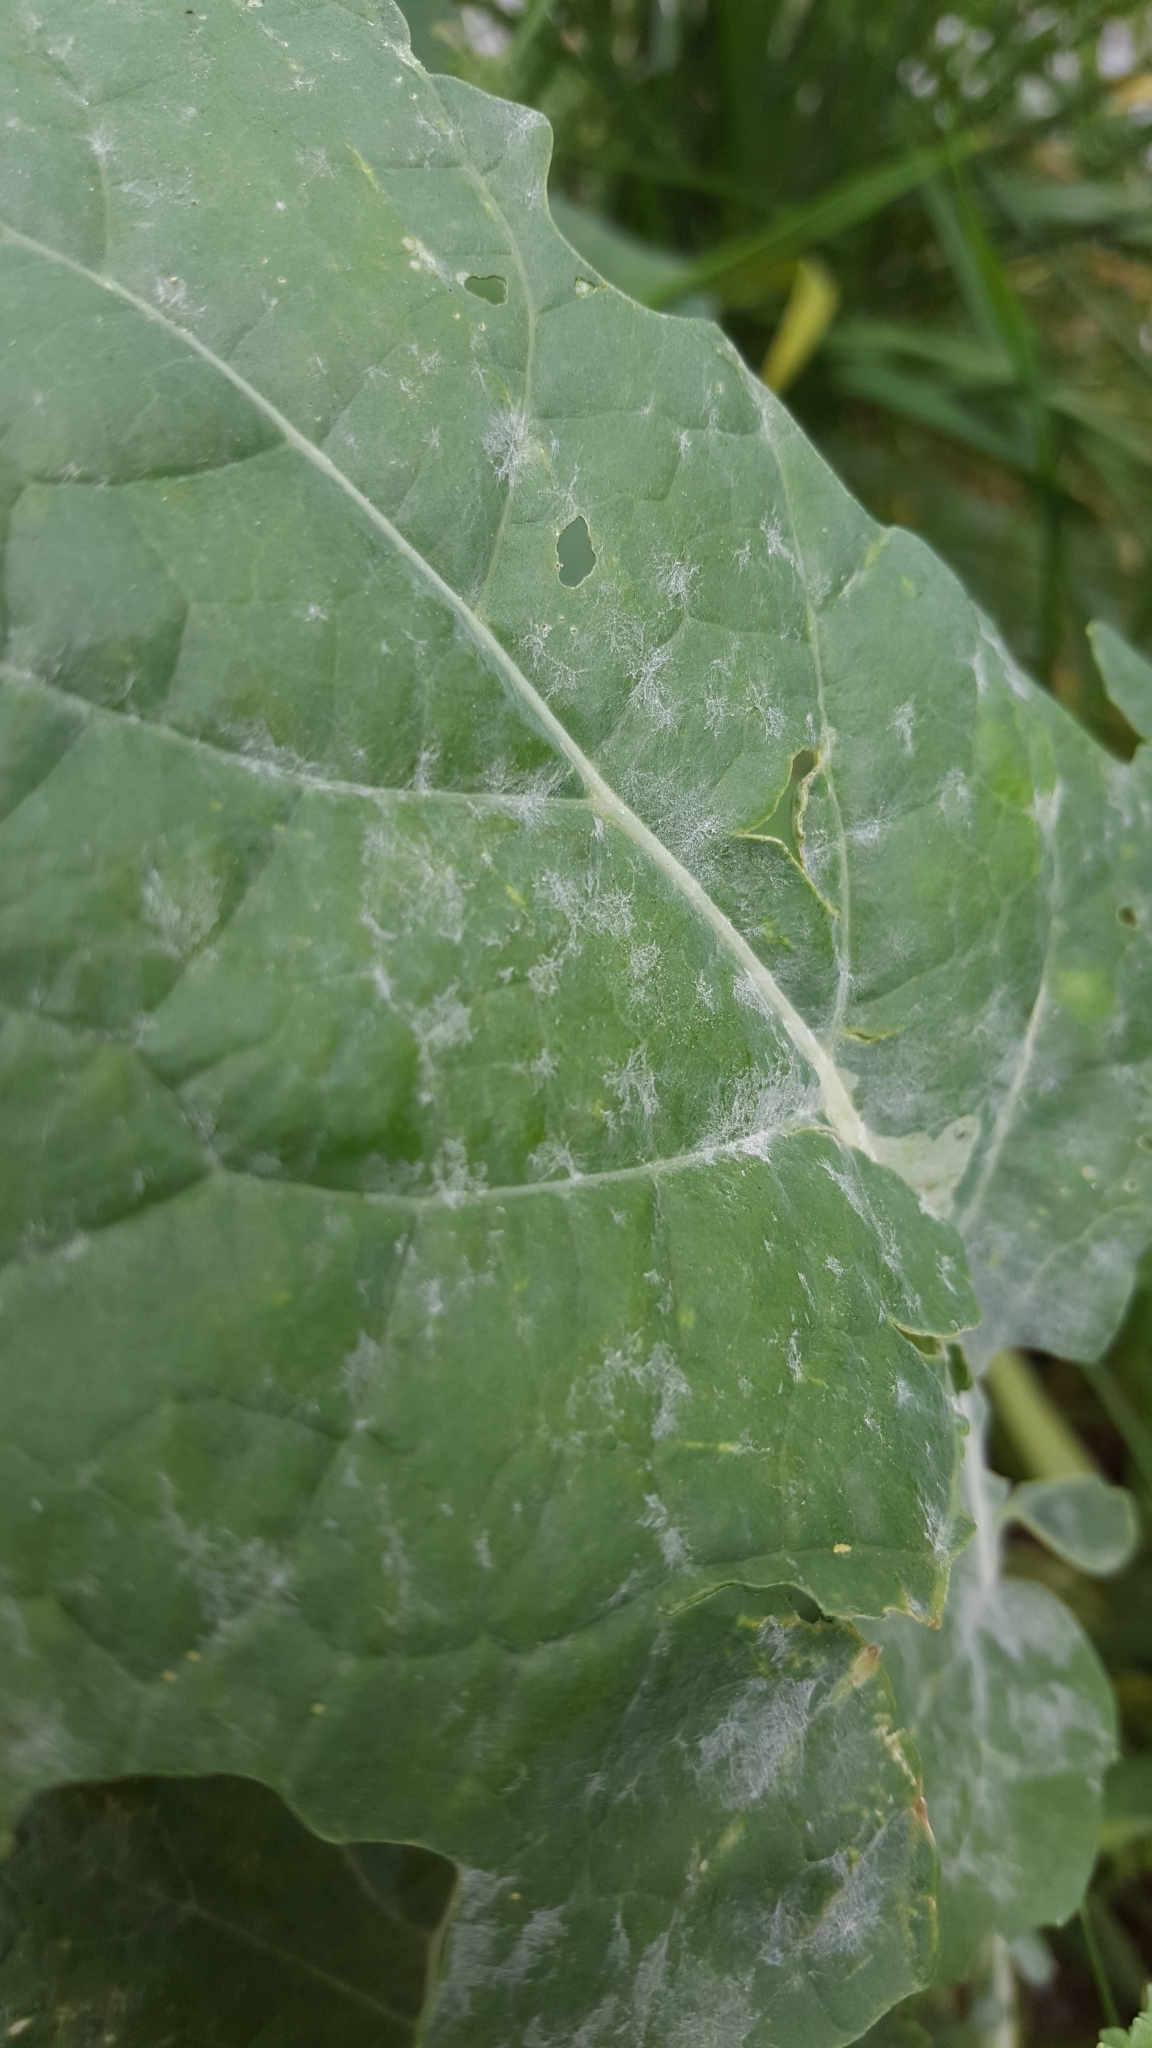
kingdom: Fungi
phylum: Ascomycota
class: Leotiomycetes
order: Helotiales
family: Erysiphaceae
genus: Erysiphe
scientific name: Erysiphe cruciferarum
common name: Brassica powdery mildew
